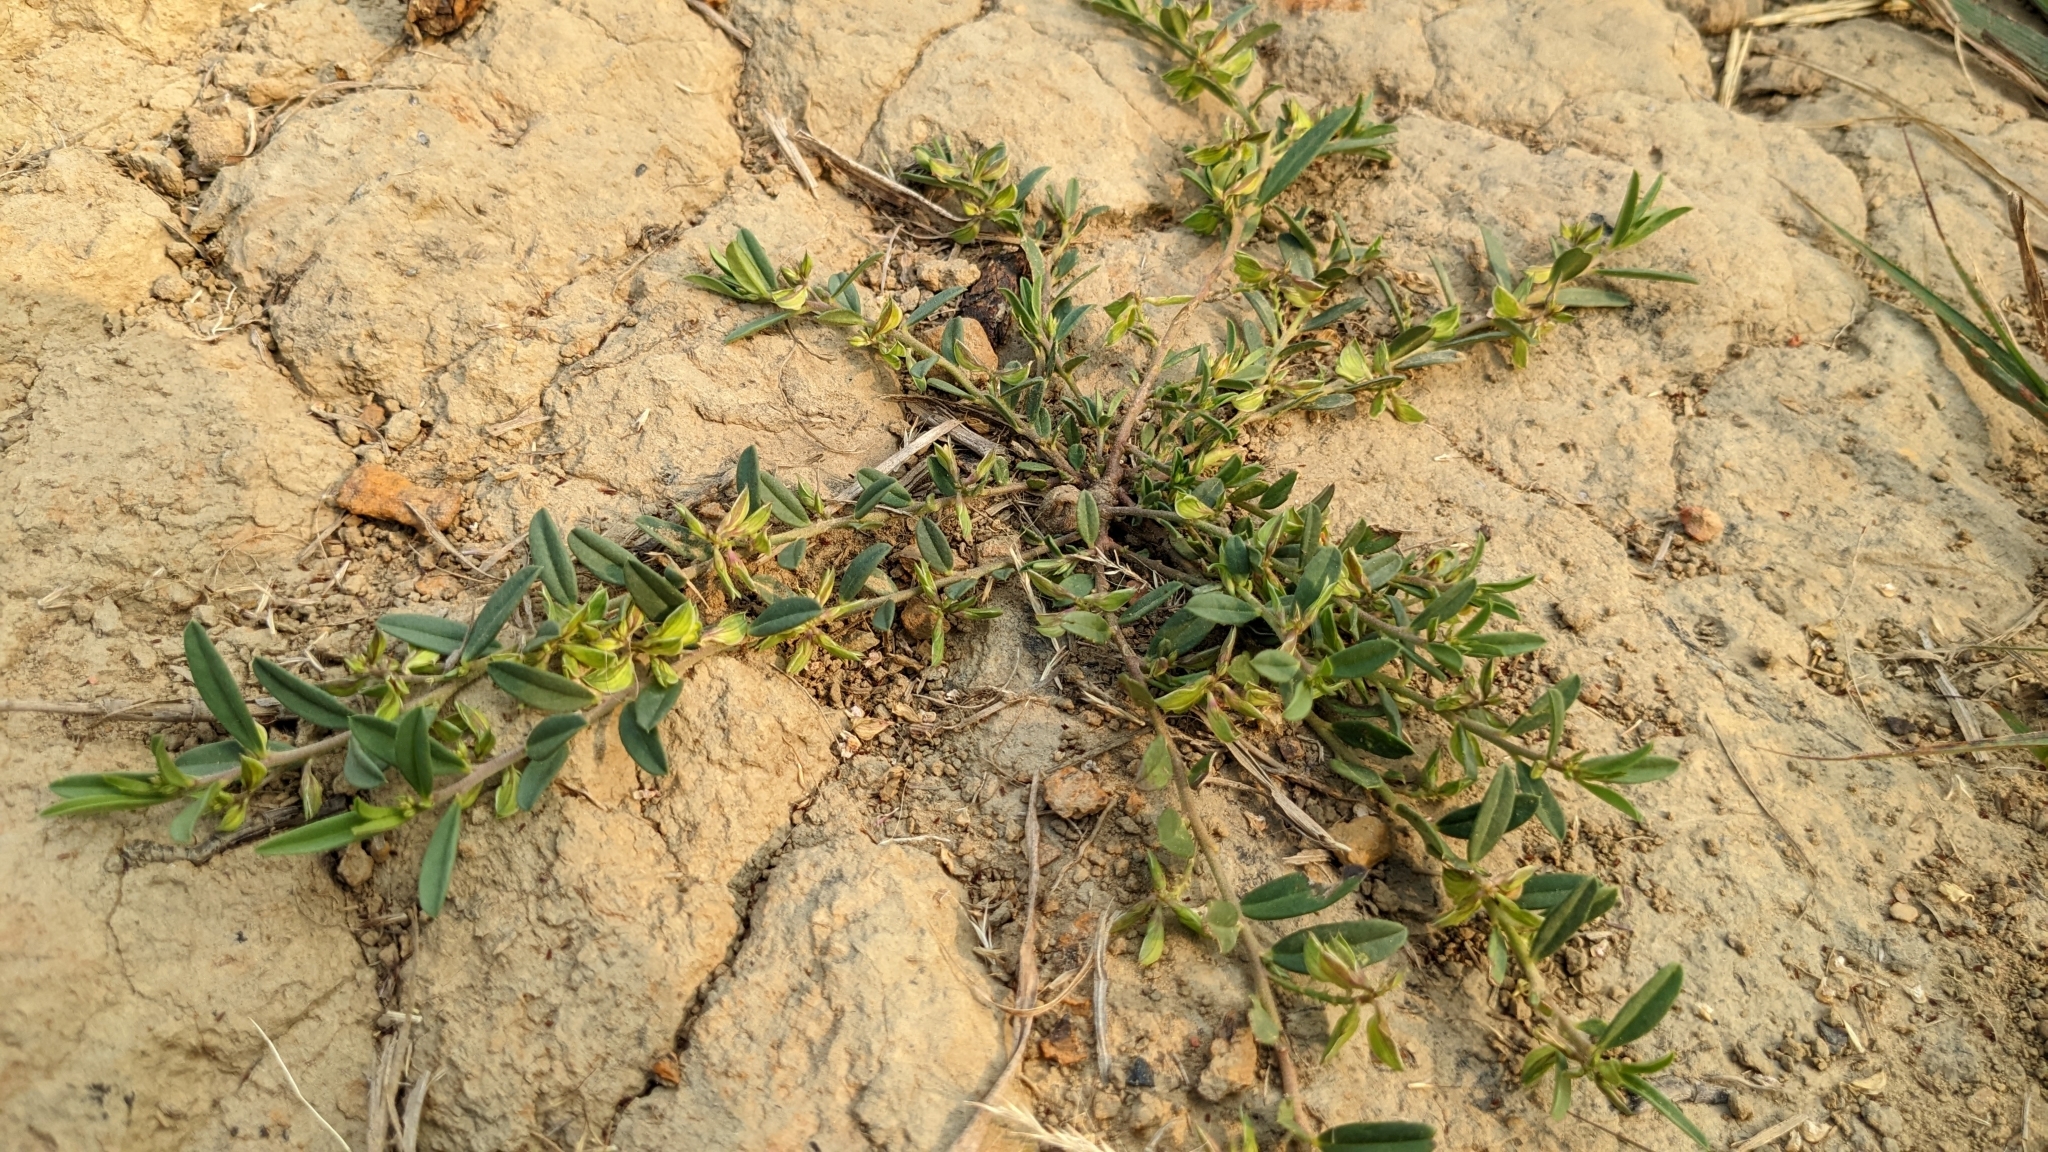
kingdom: Plantae
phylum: Tracheophyta
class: Magnoliopsida
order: Fabales
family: Polygalaceae
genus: Polygala
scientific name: Polygala arvensis
